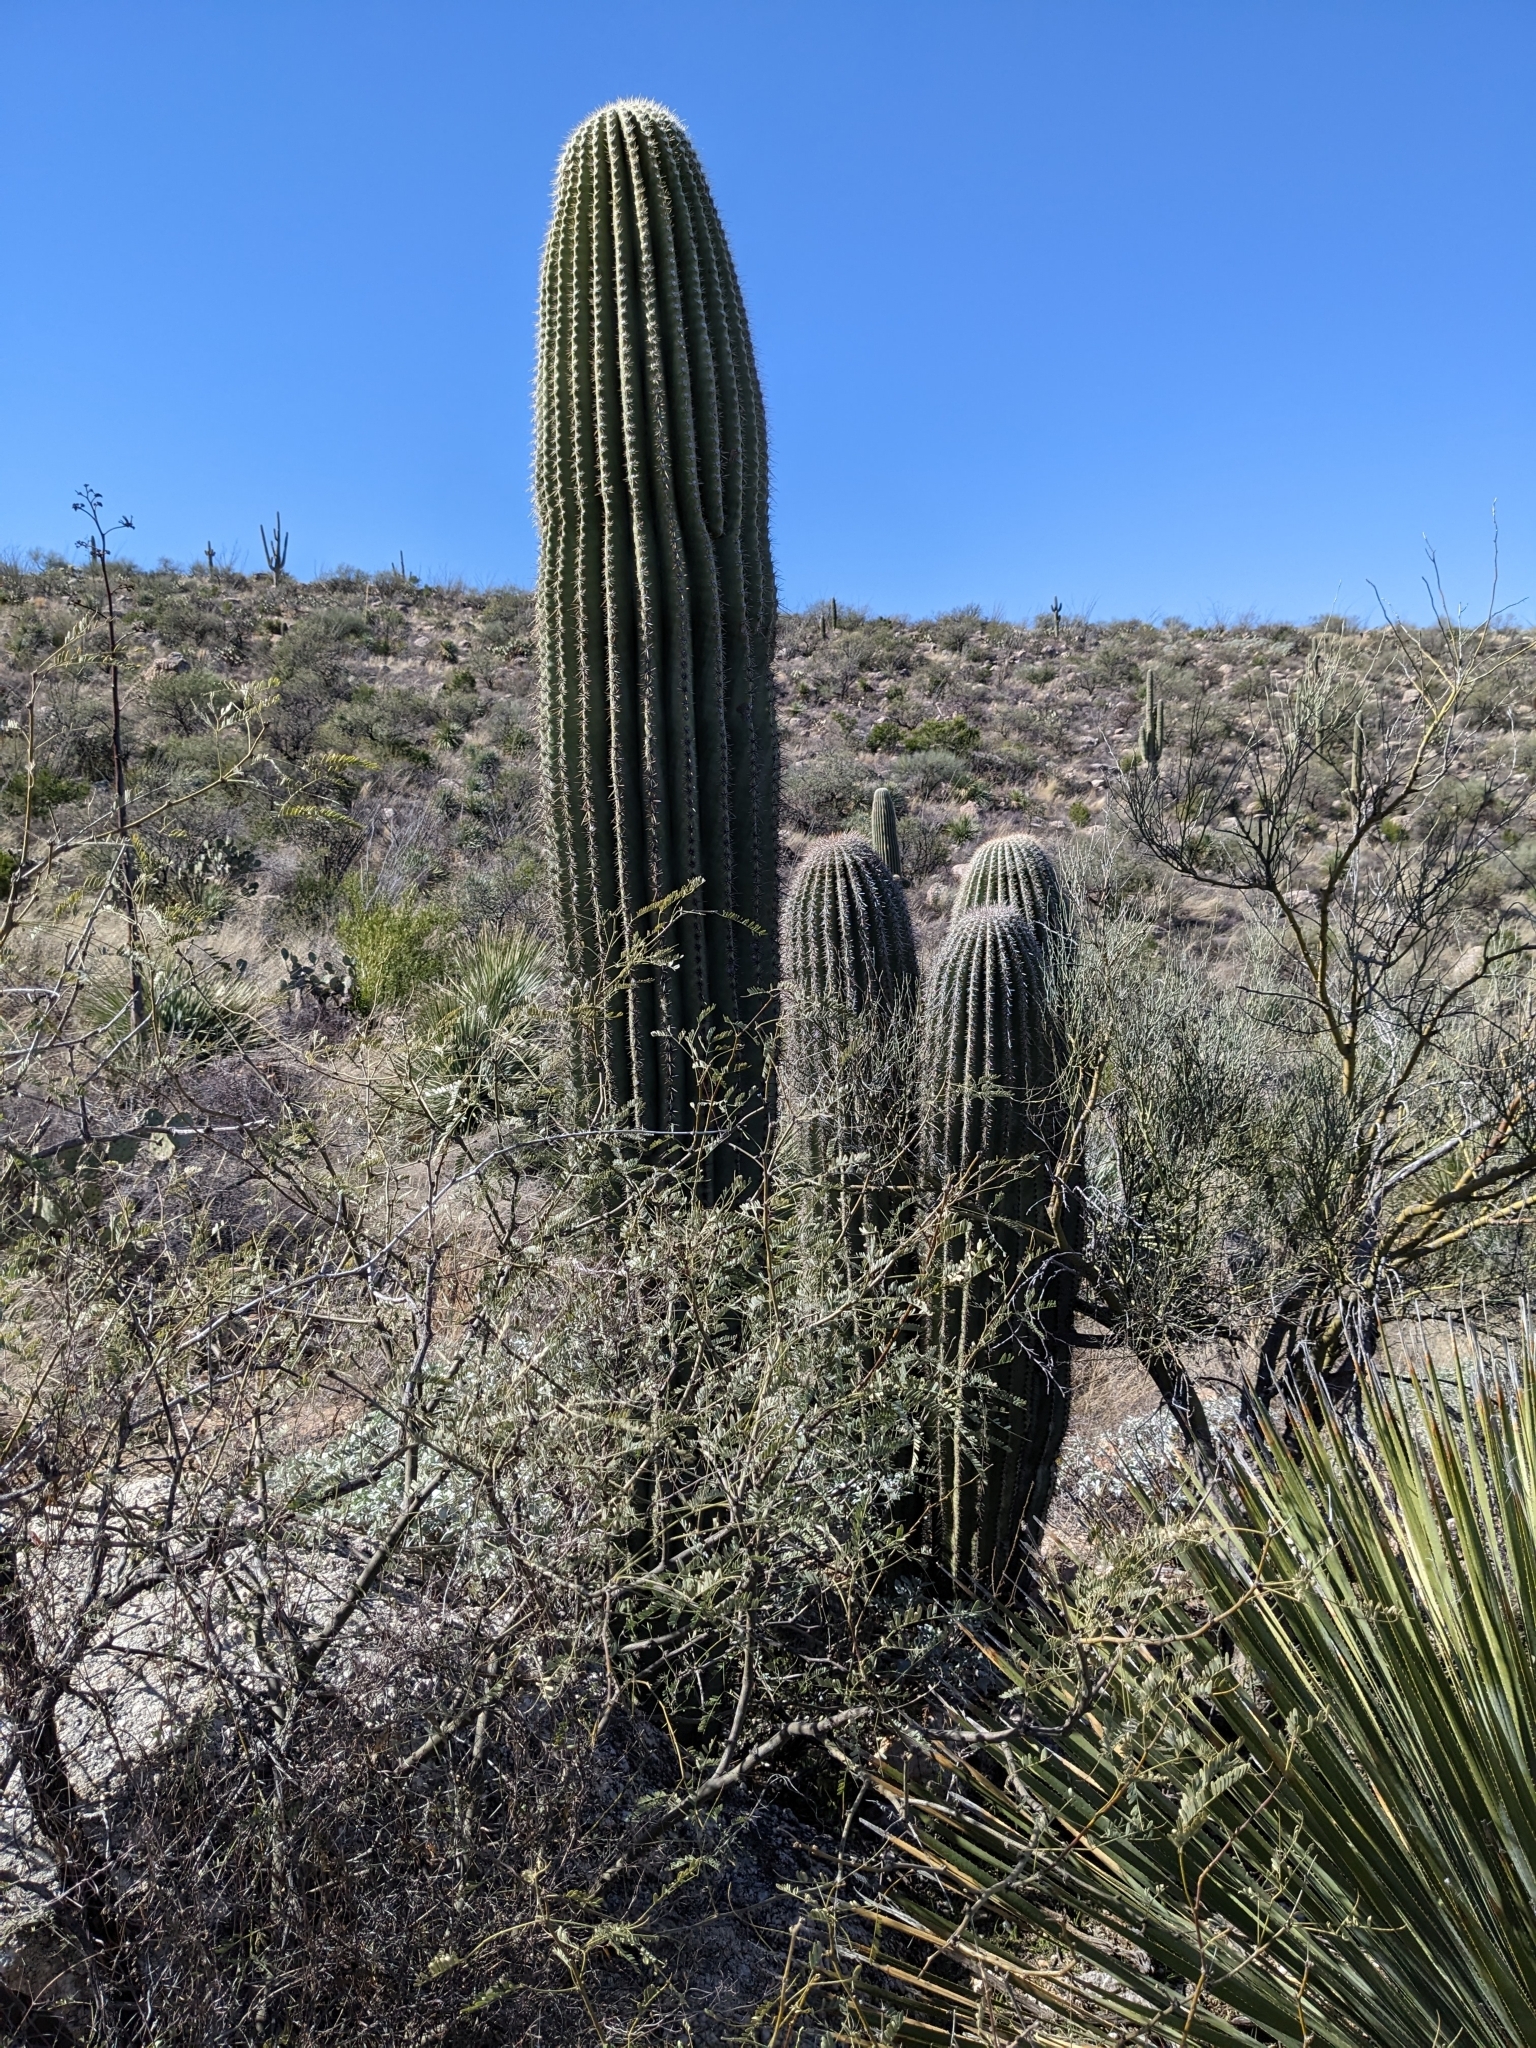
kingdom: Plantae
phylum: Tracheophyta
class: Magnoliopsida
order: Caryophyllales
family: Cactaceae
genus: Carnegiea
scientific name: Carnegiea gigantea
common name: Saguaro
